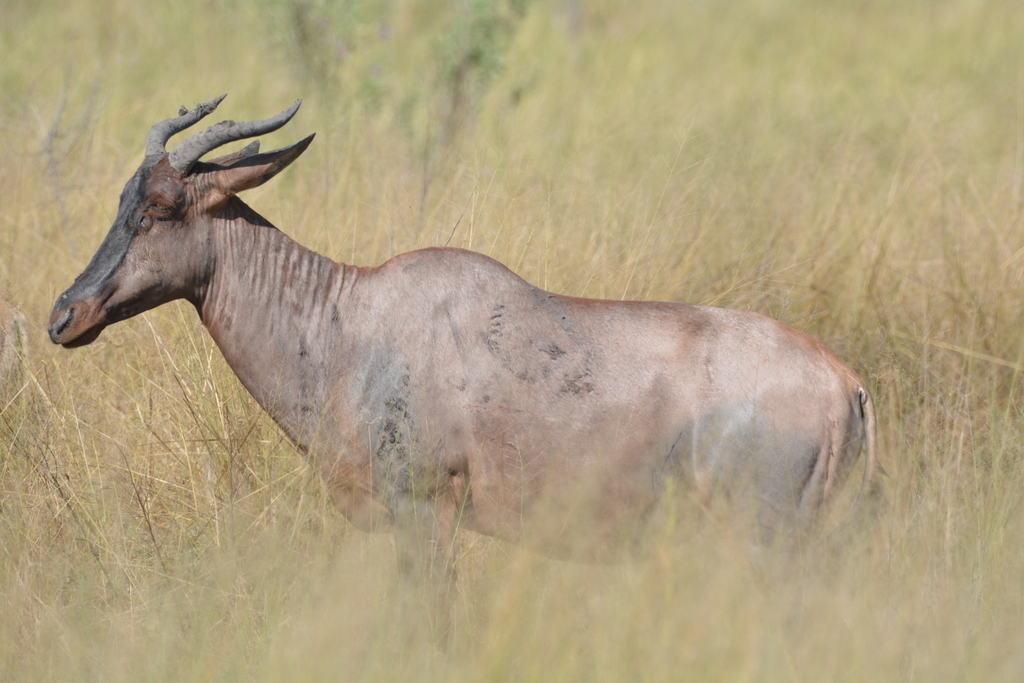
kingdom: Animalia
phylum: Chordata
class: Mammalia
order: Artiodactyla
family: Bovidae
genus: Damaliscus
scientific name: Damaliscus lunatus
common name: Common tsessebe
